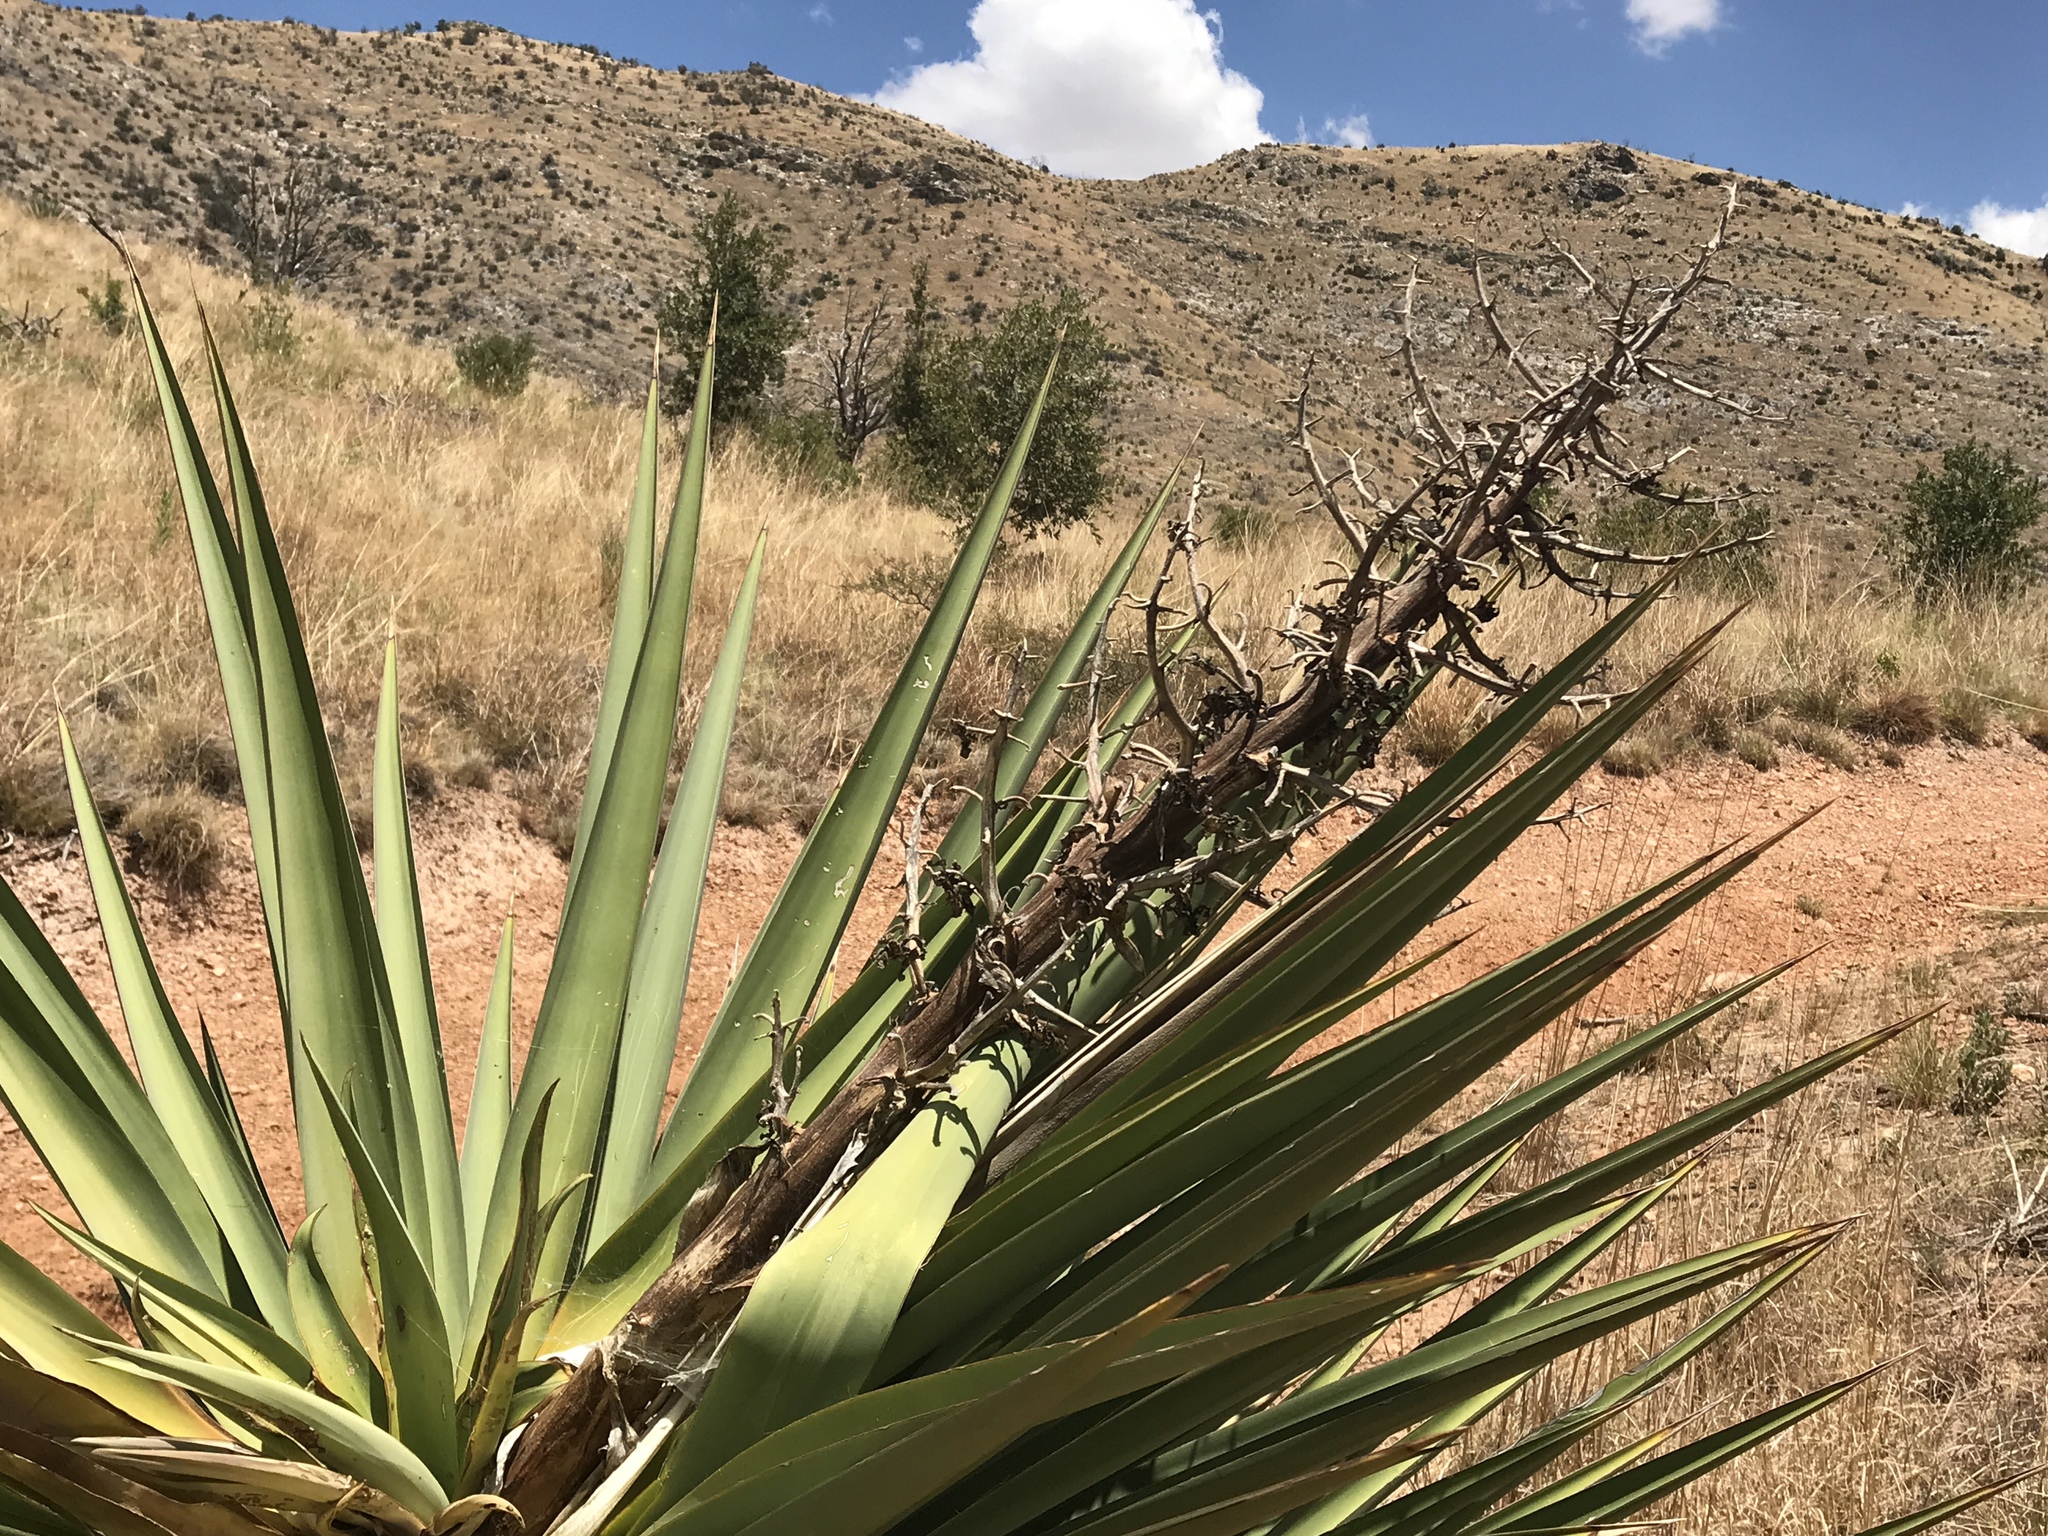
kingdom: Plantae
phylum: Tracheophyta
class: Liliopsida
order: Asparagales
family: Asparagaceae
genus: Yucca
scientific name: Yucca madrensis
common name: Hoary yucca
